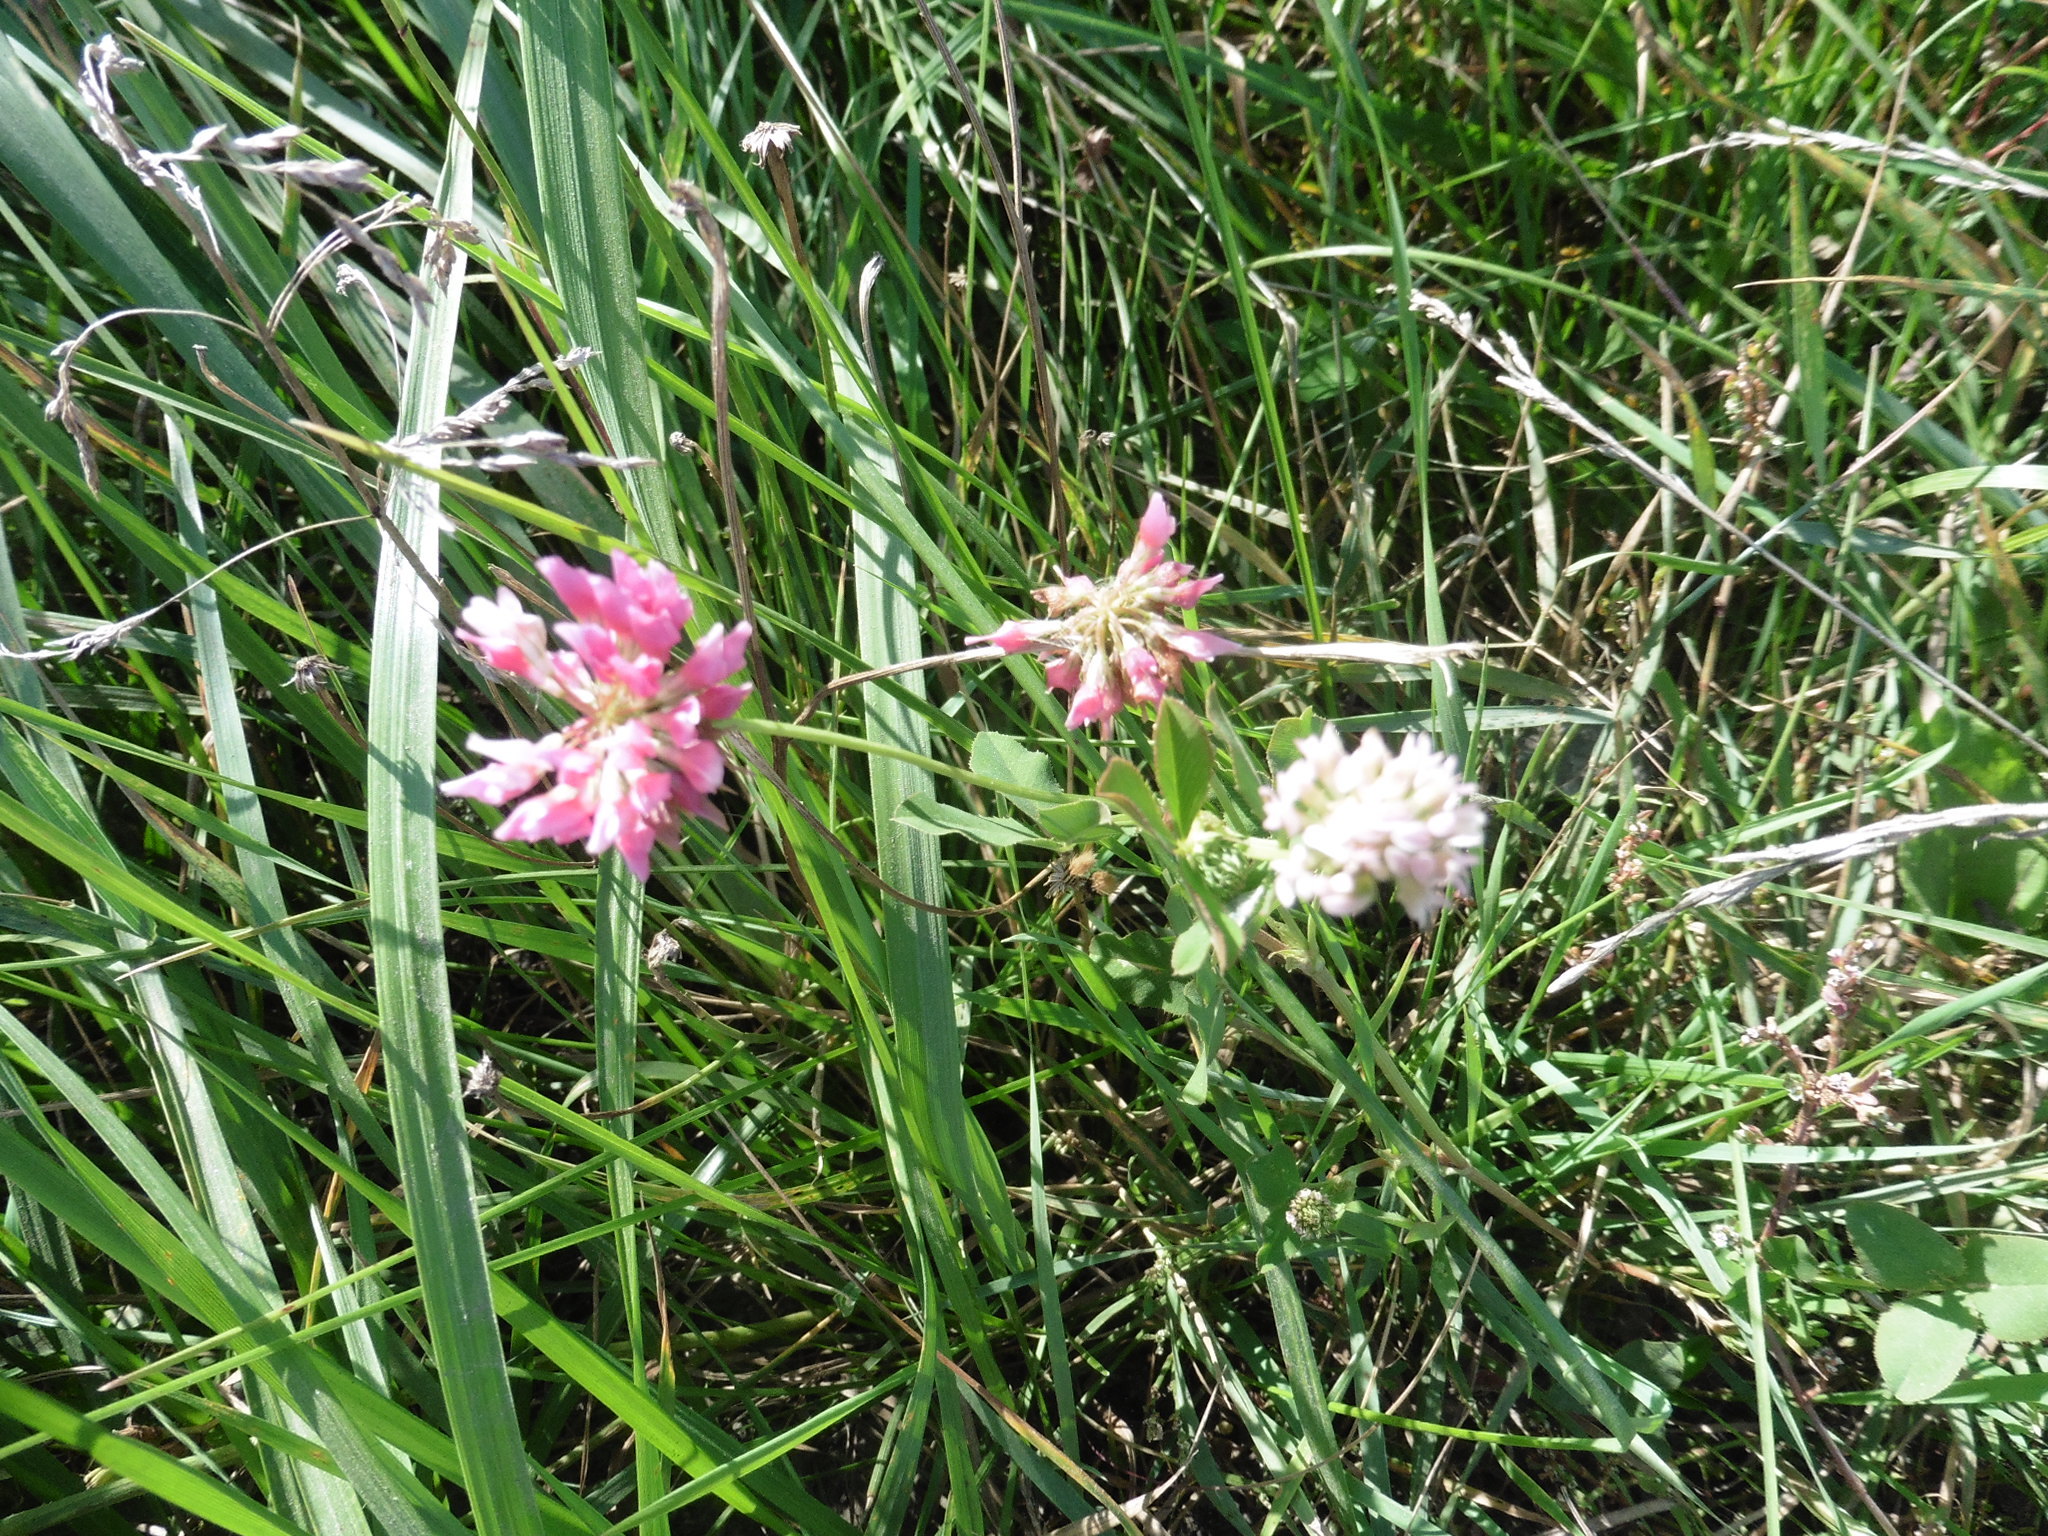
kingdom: Plantae
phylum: Tracheophyta
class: Magnoliopsida
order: Fabales
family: Fabaceae
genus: Trifolium
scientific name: Trifolium hybridum
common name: Alsike clover
